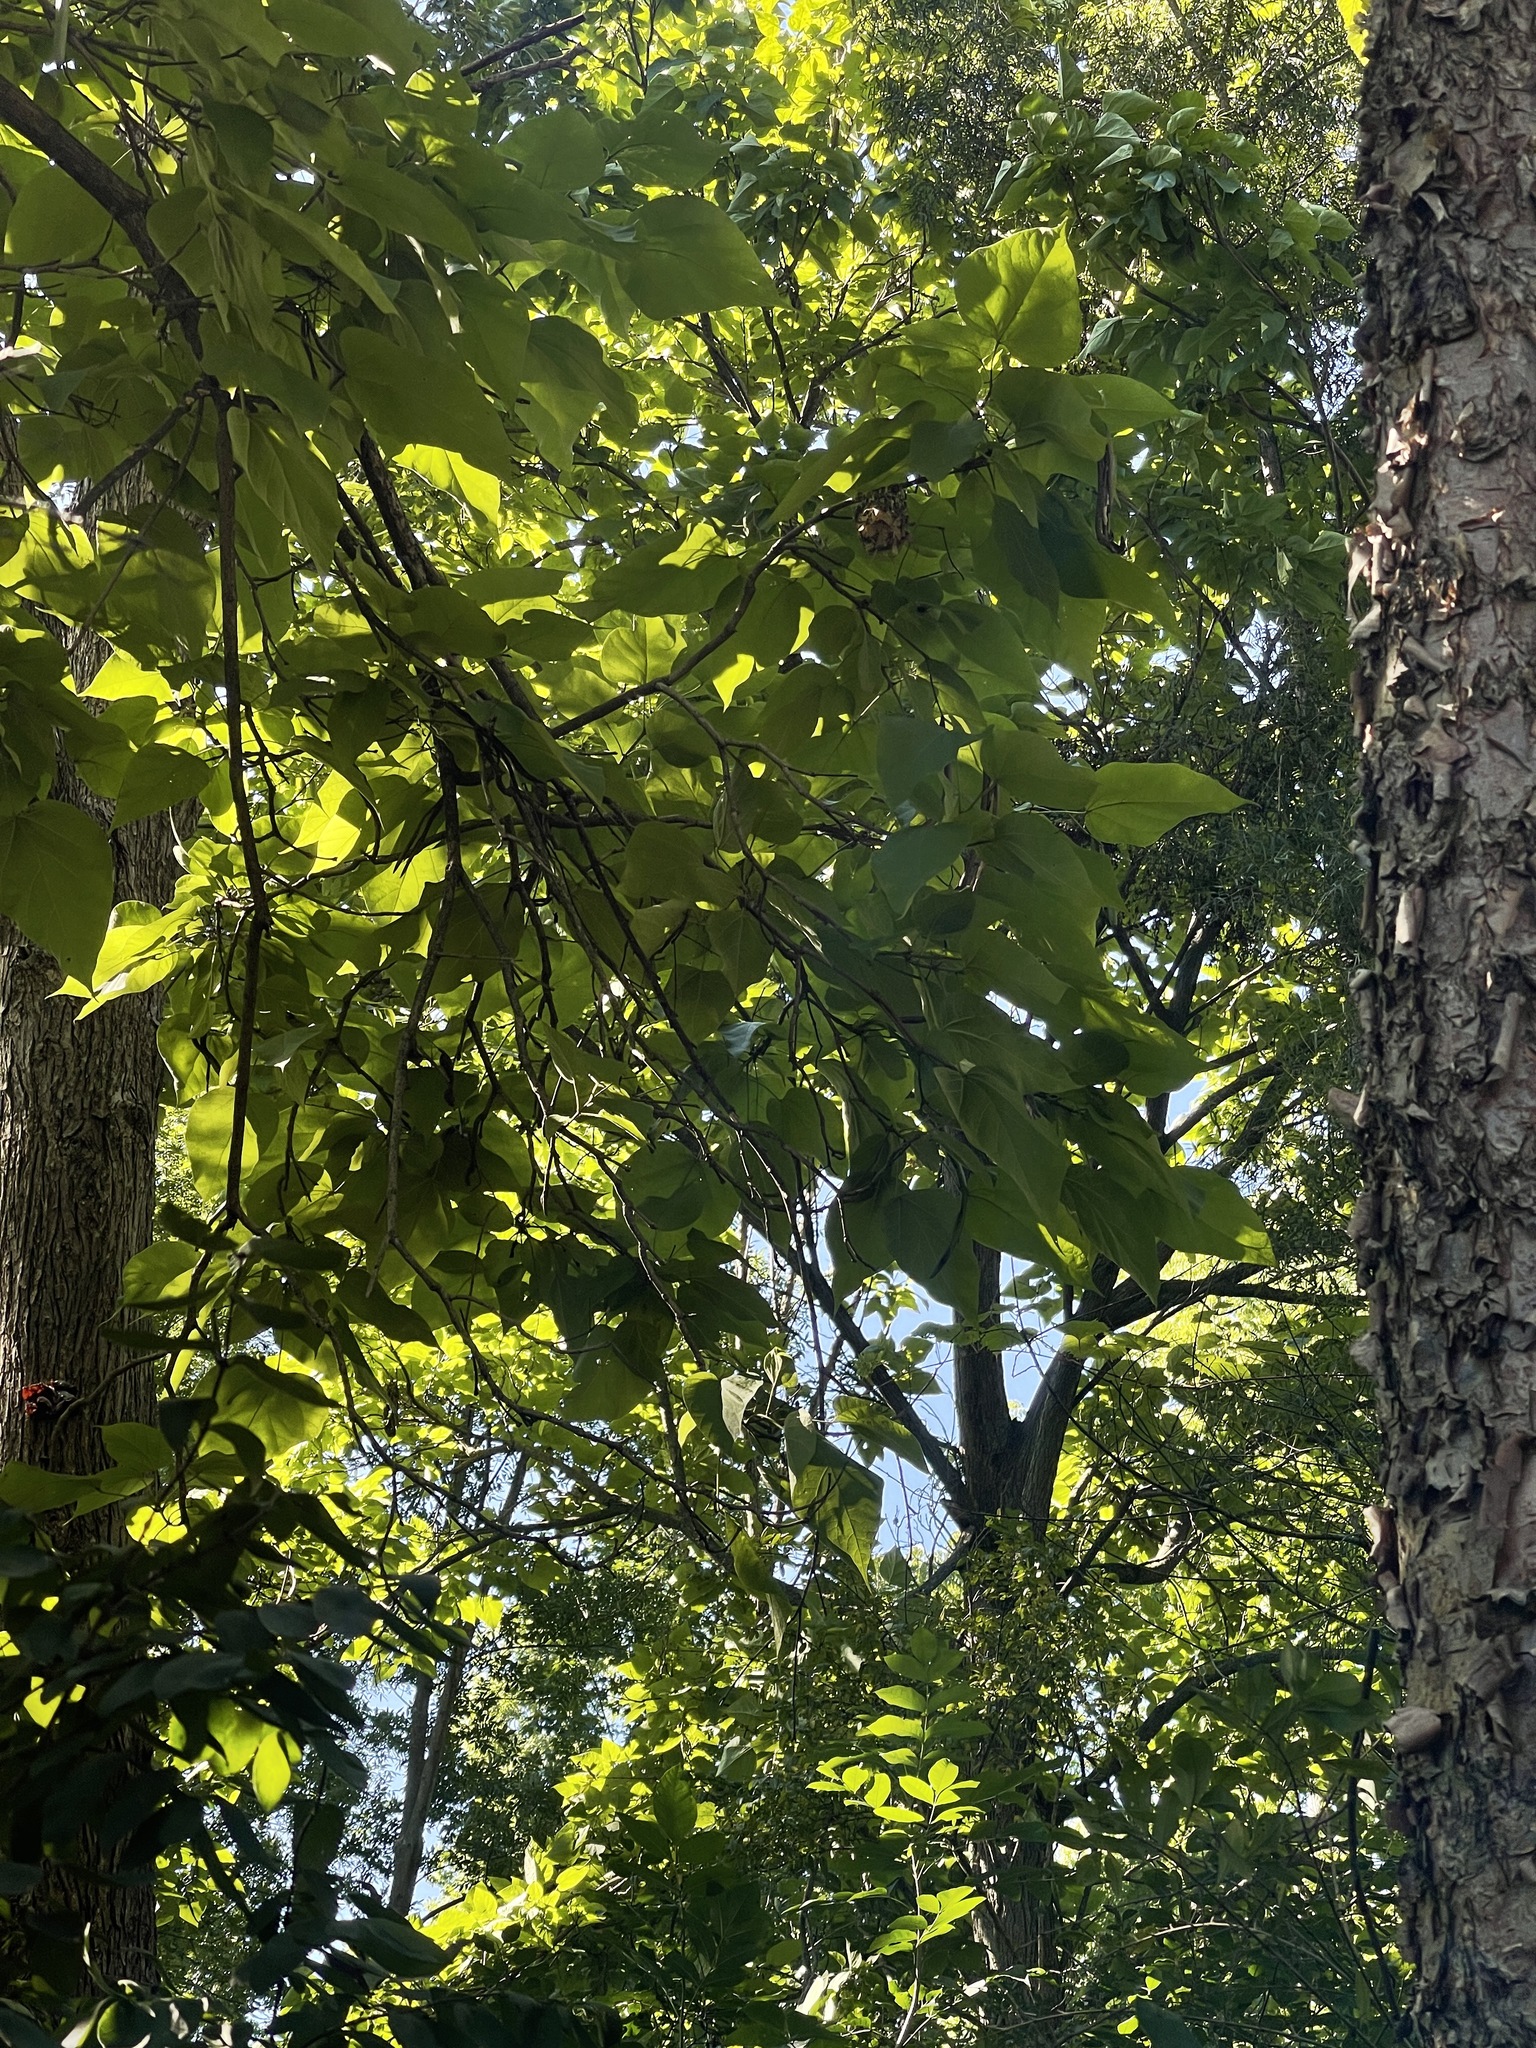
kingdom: Plantae
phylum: Tracheophyta
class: Magnoliopsida
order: Lamiales
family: Bignoniaceae
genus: Catalpa
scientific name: Catalpa speciosa
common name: Northern catalpa
